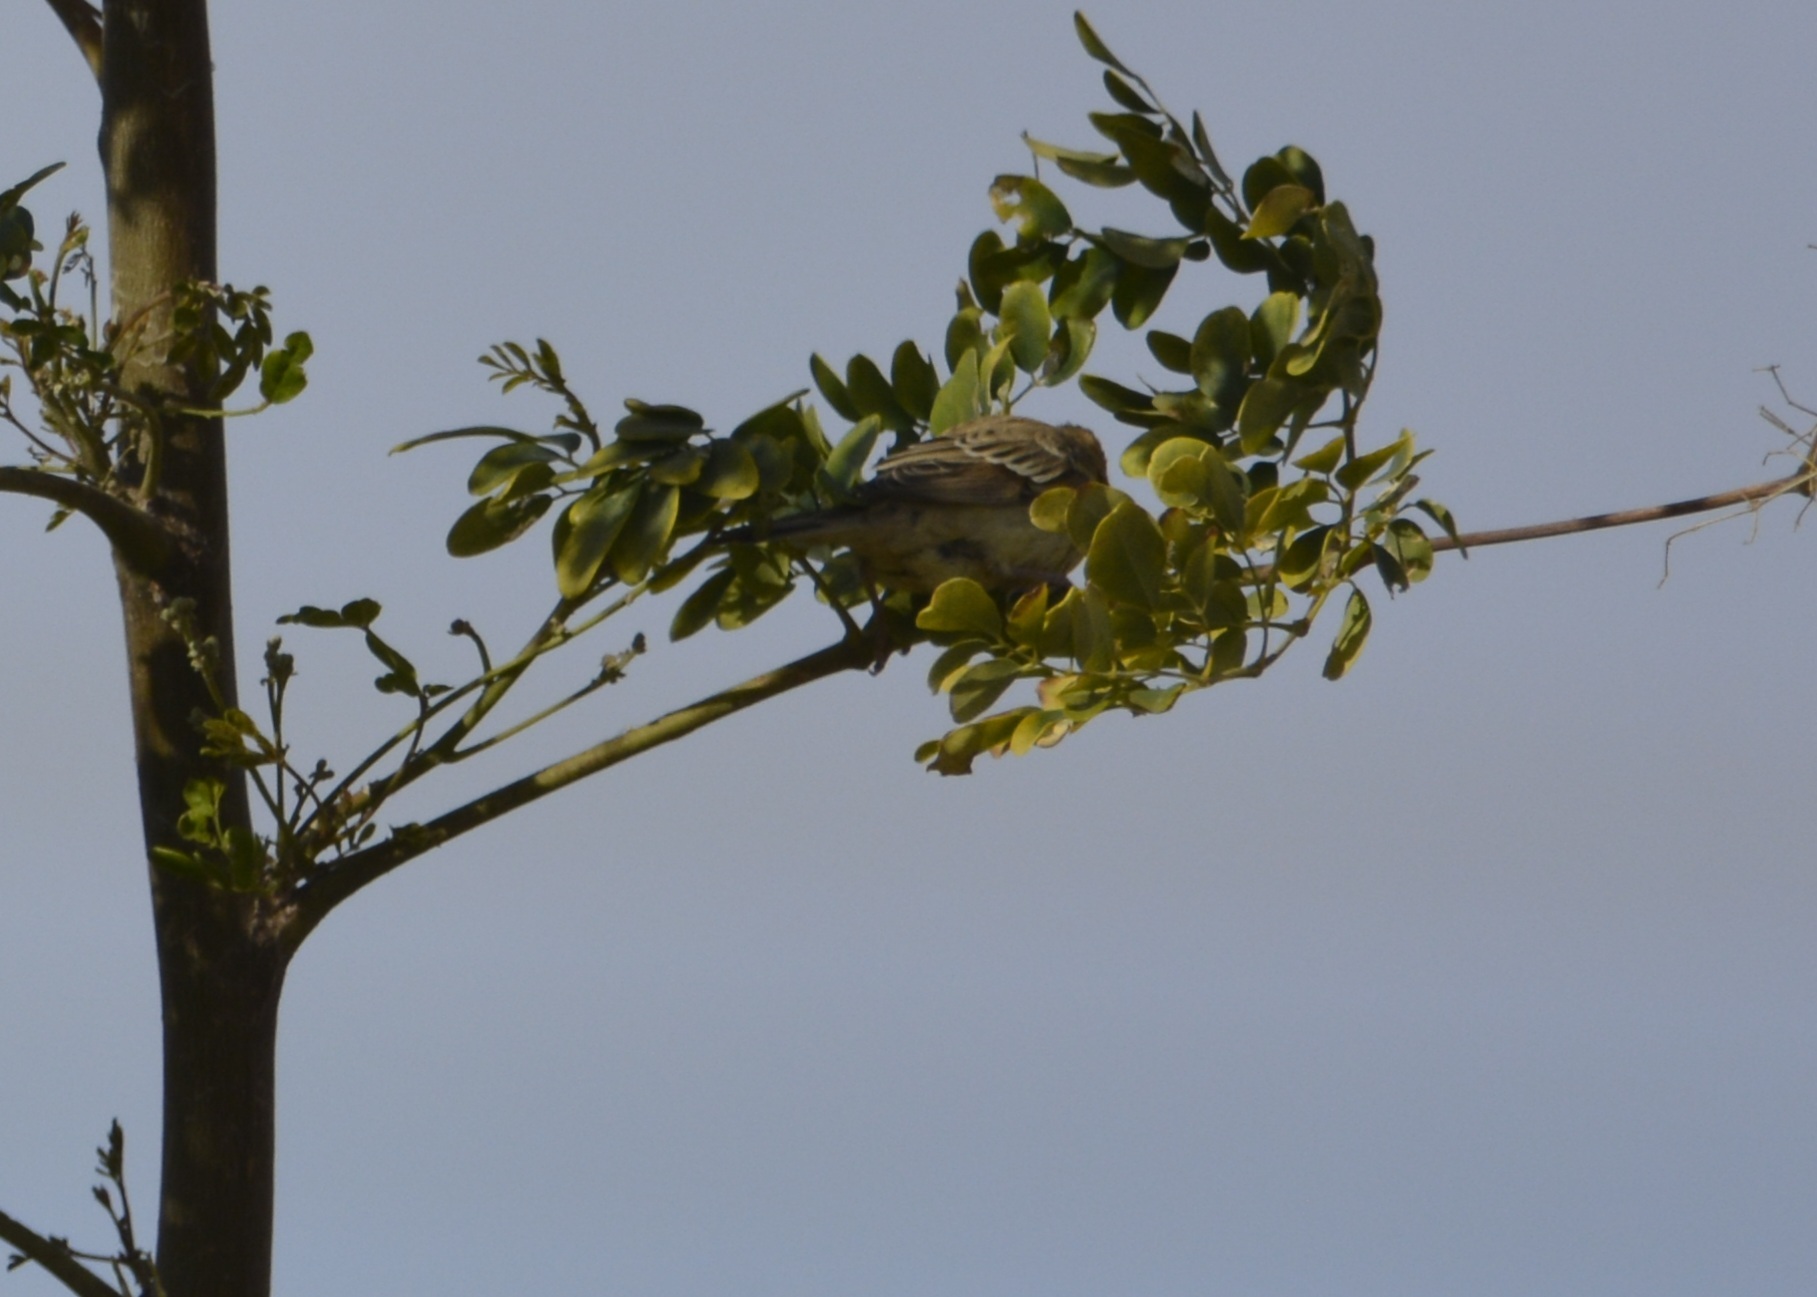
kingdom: Animalia
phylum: Chordata
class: Aves
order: Passeriformes
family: Passeridae
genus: Passer
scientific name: Passer luteus
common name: Sudan golden sparrow
